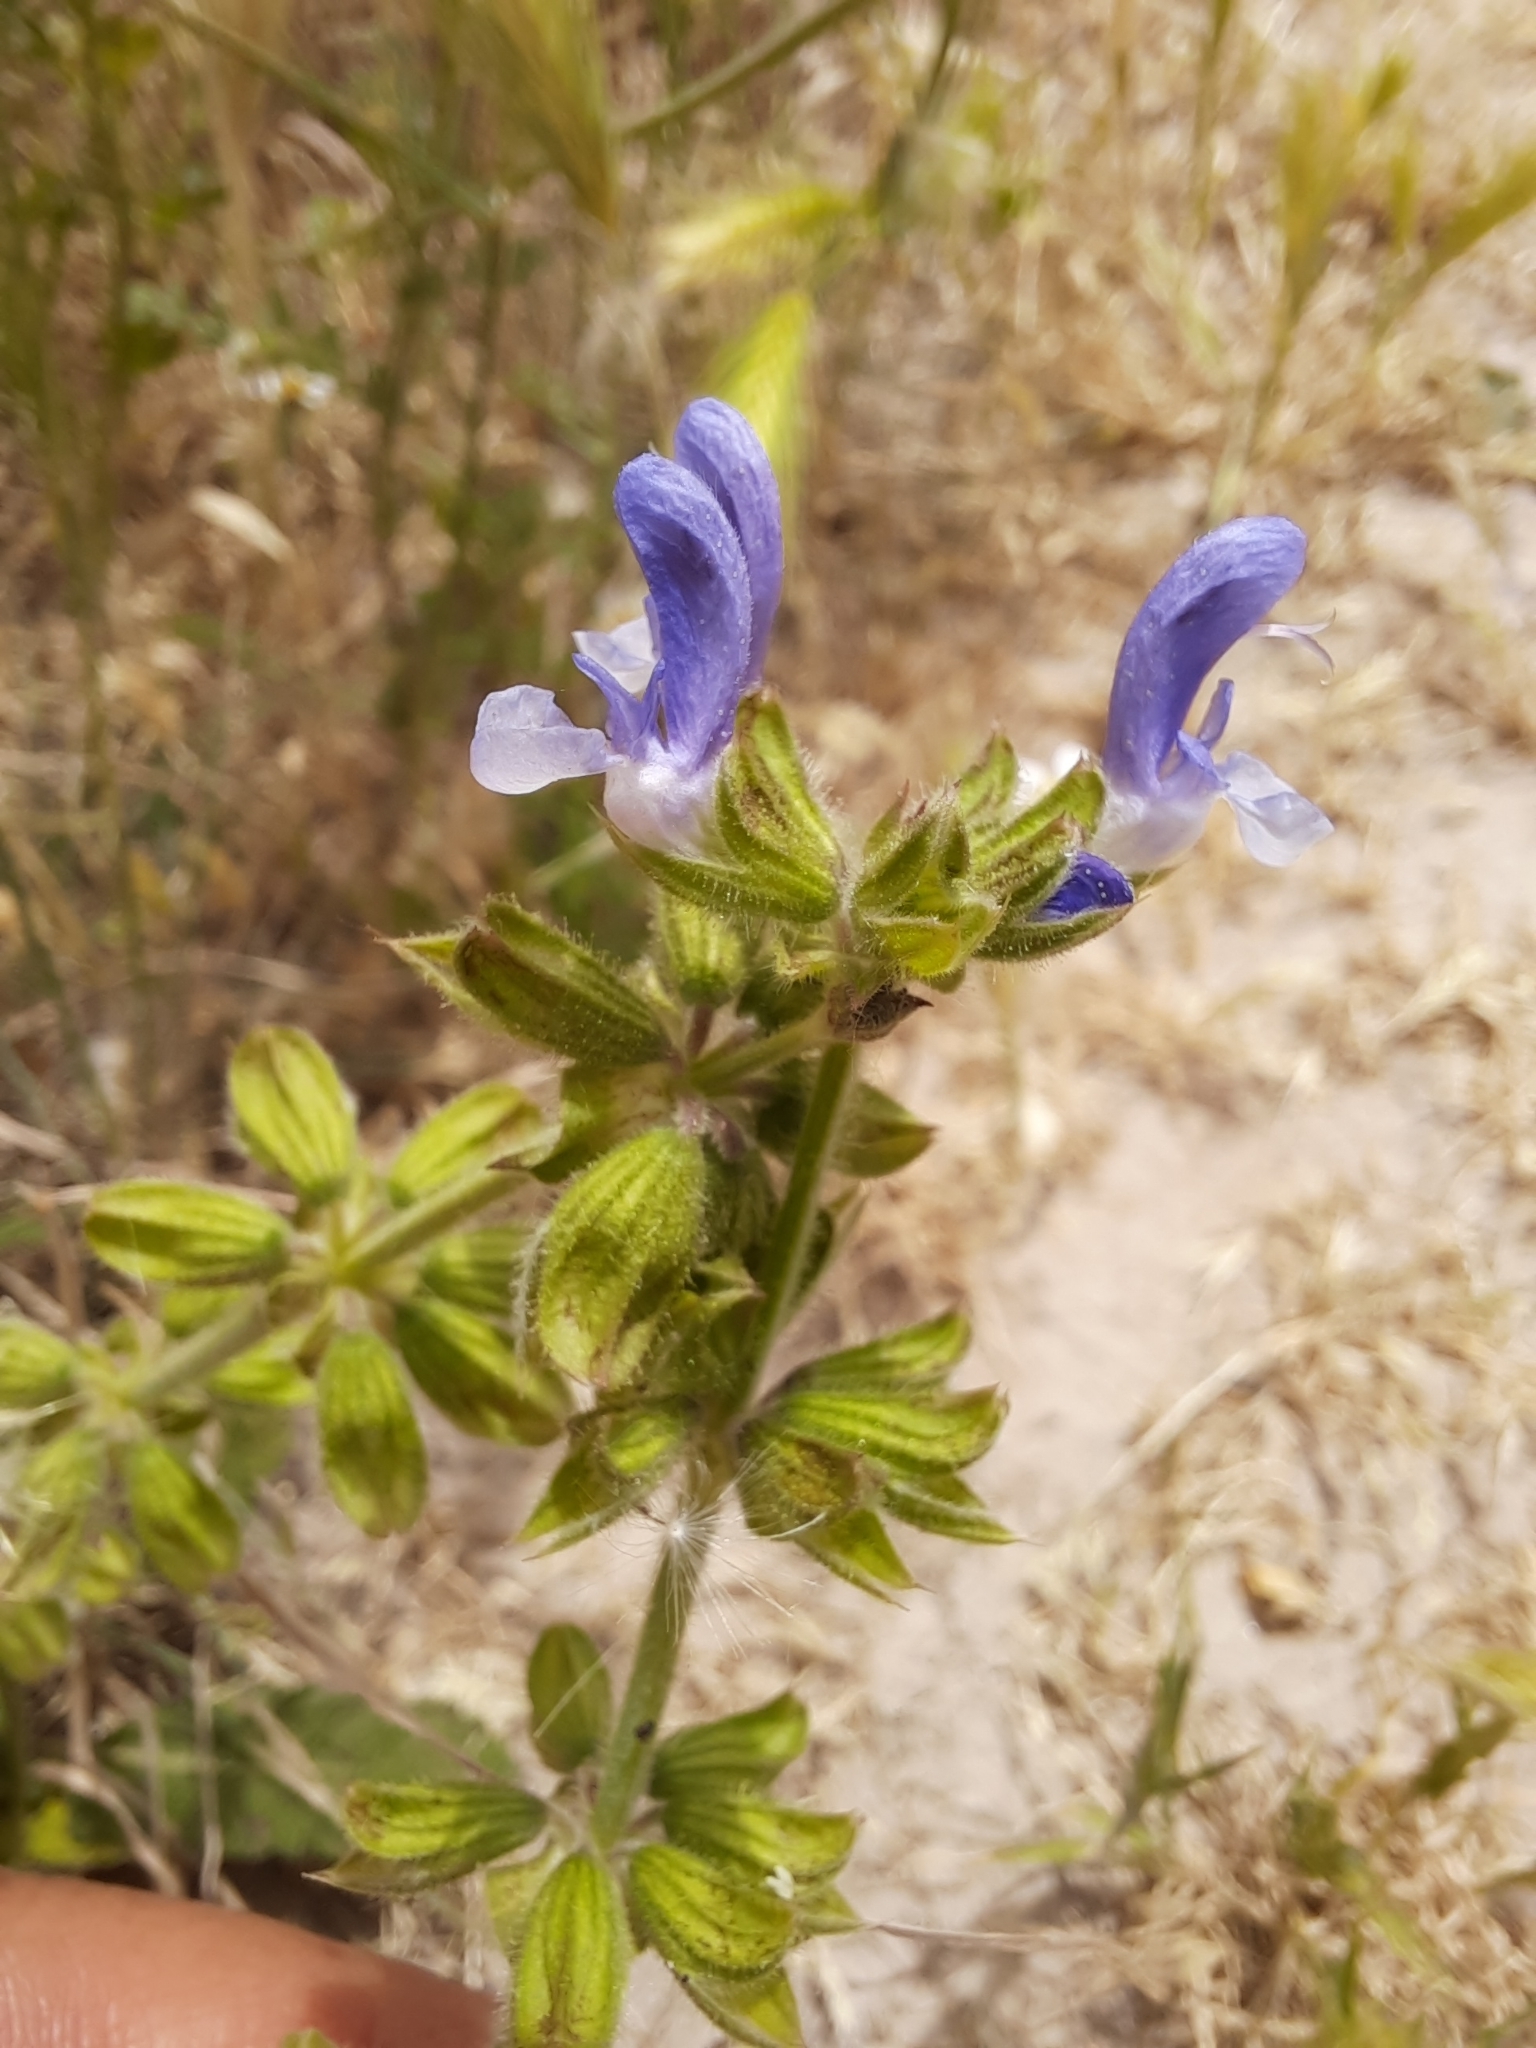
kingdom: Plantae
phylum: Tracheophyta
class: Magnoliopsida
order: Lamiales
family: Lamiaceae
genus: Salvia
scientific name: Salvia verbenaca
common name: Wild clary
